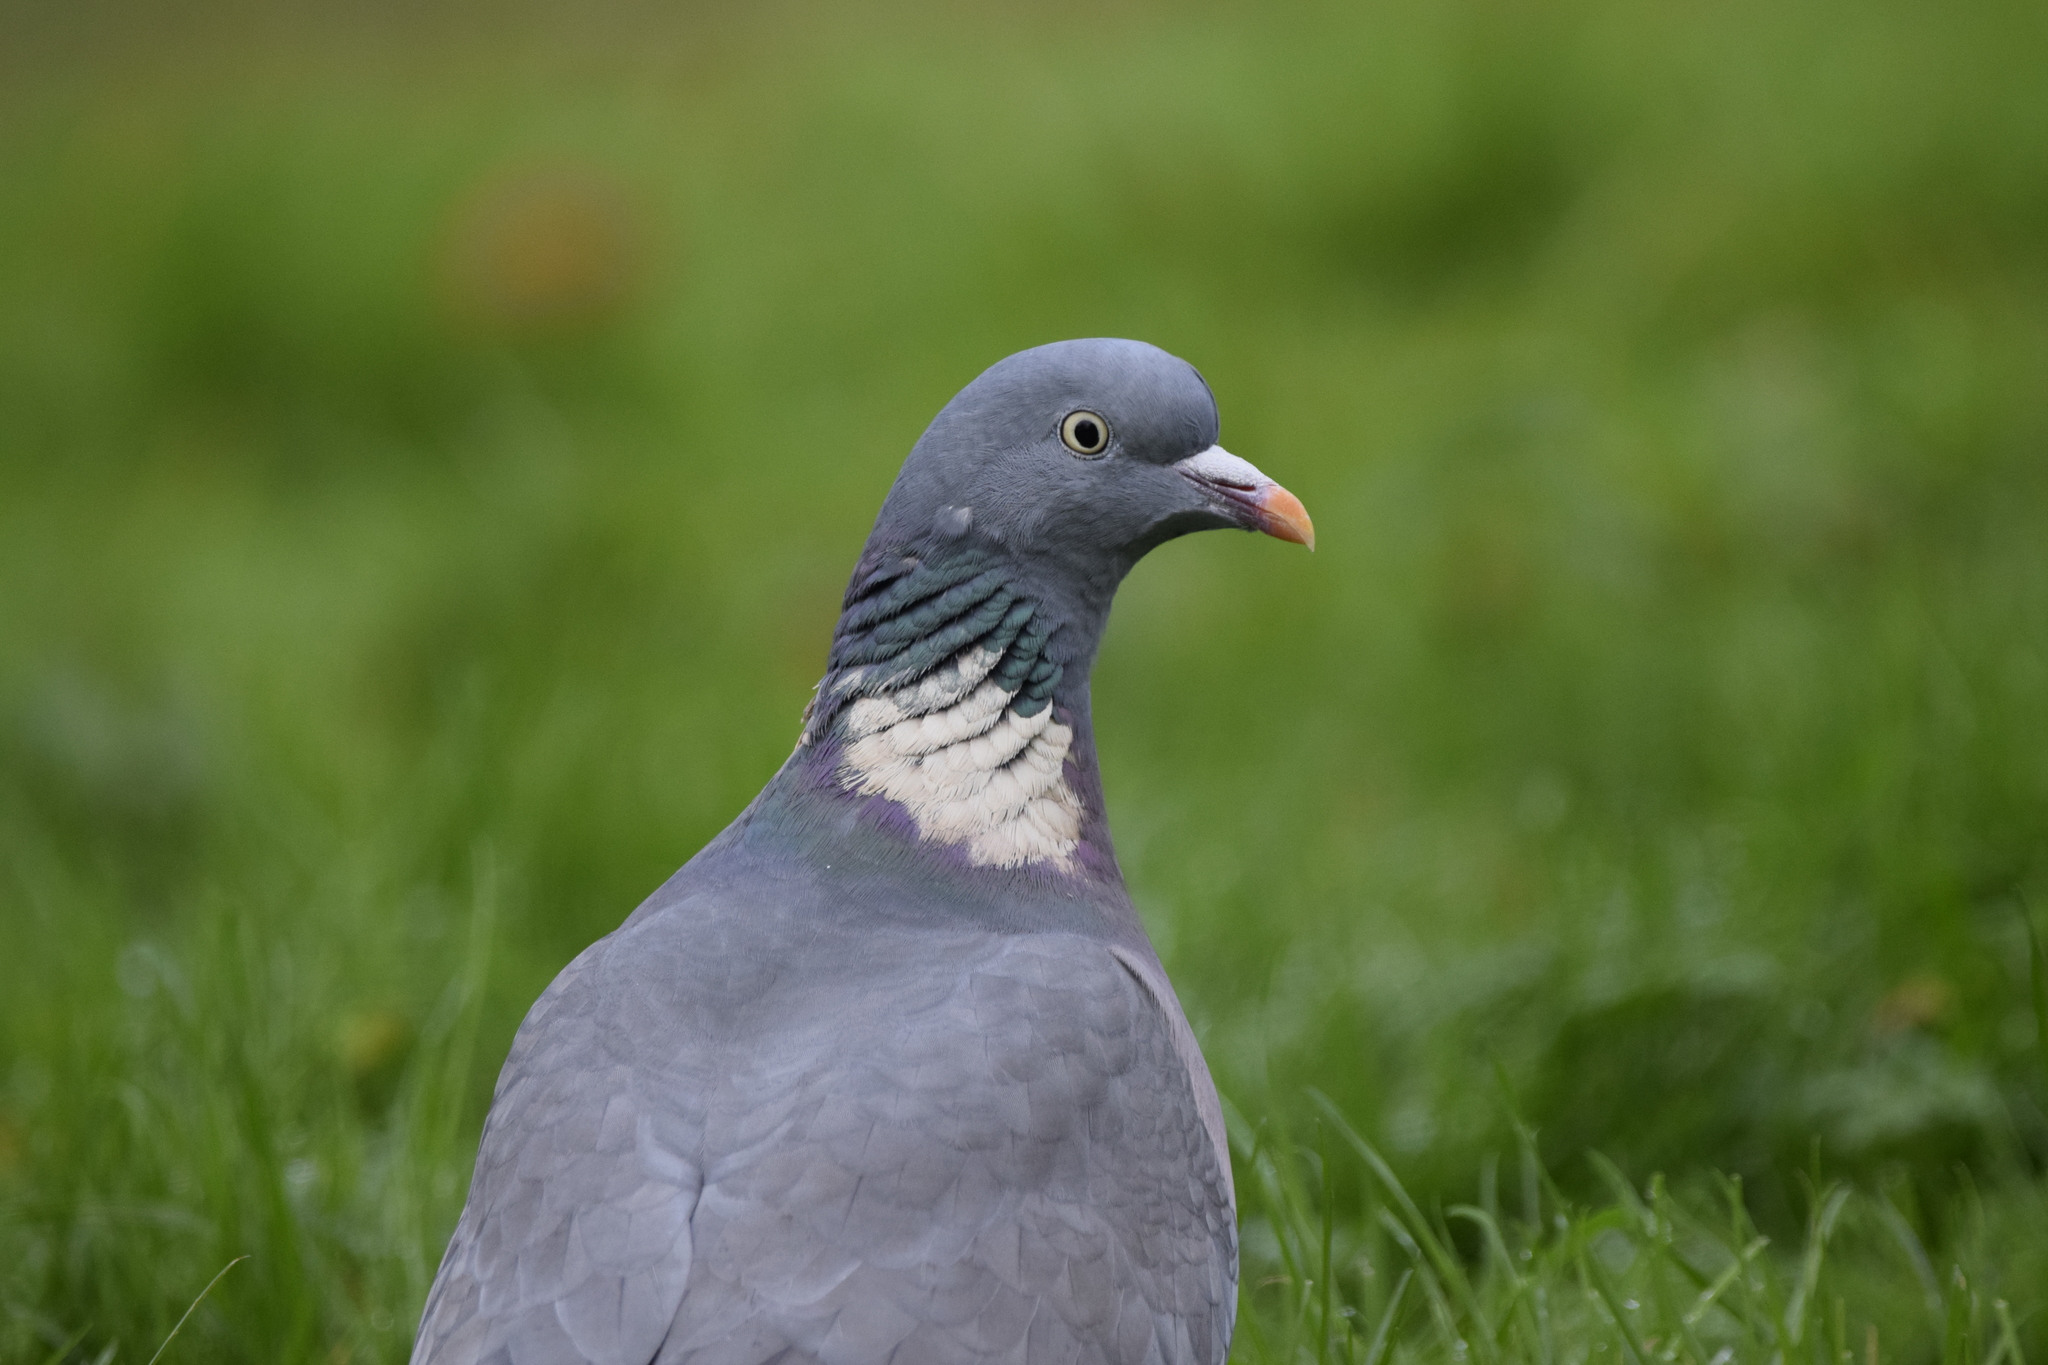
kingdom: Animalia
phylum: Chordata
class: Aves
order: Columbiformes
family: Columbidae
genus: Columba
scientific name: Columba palumbus
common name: Common wood pigeon
